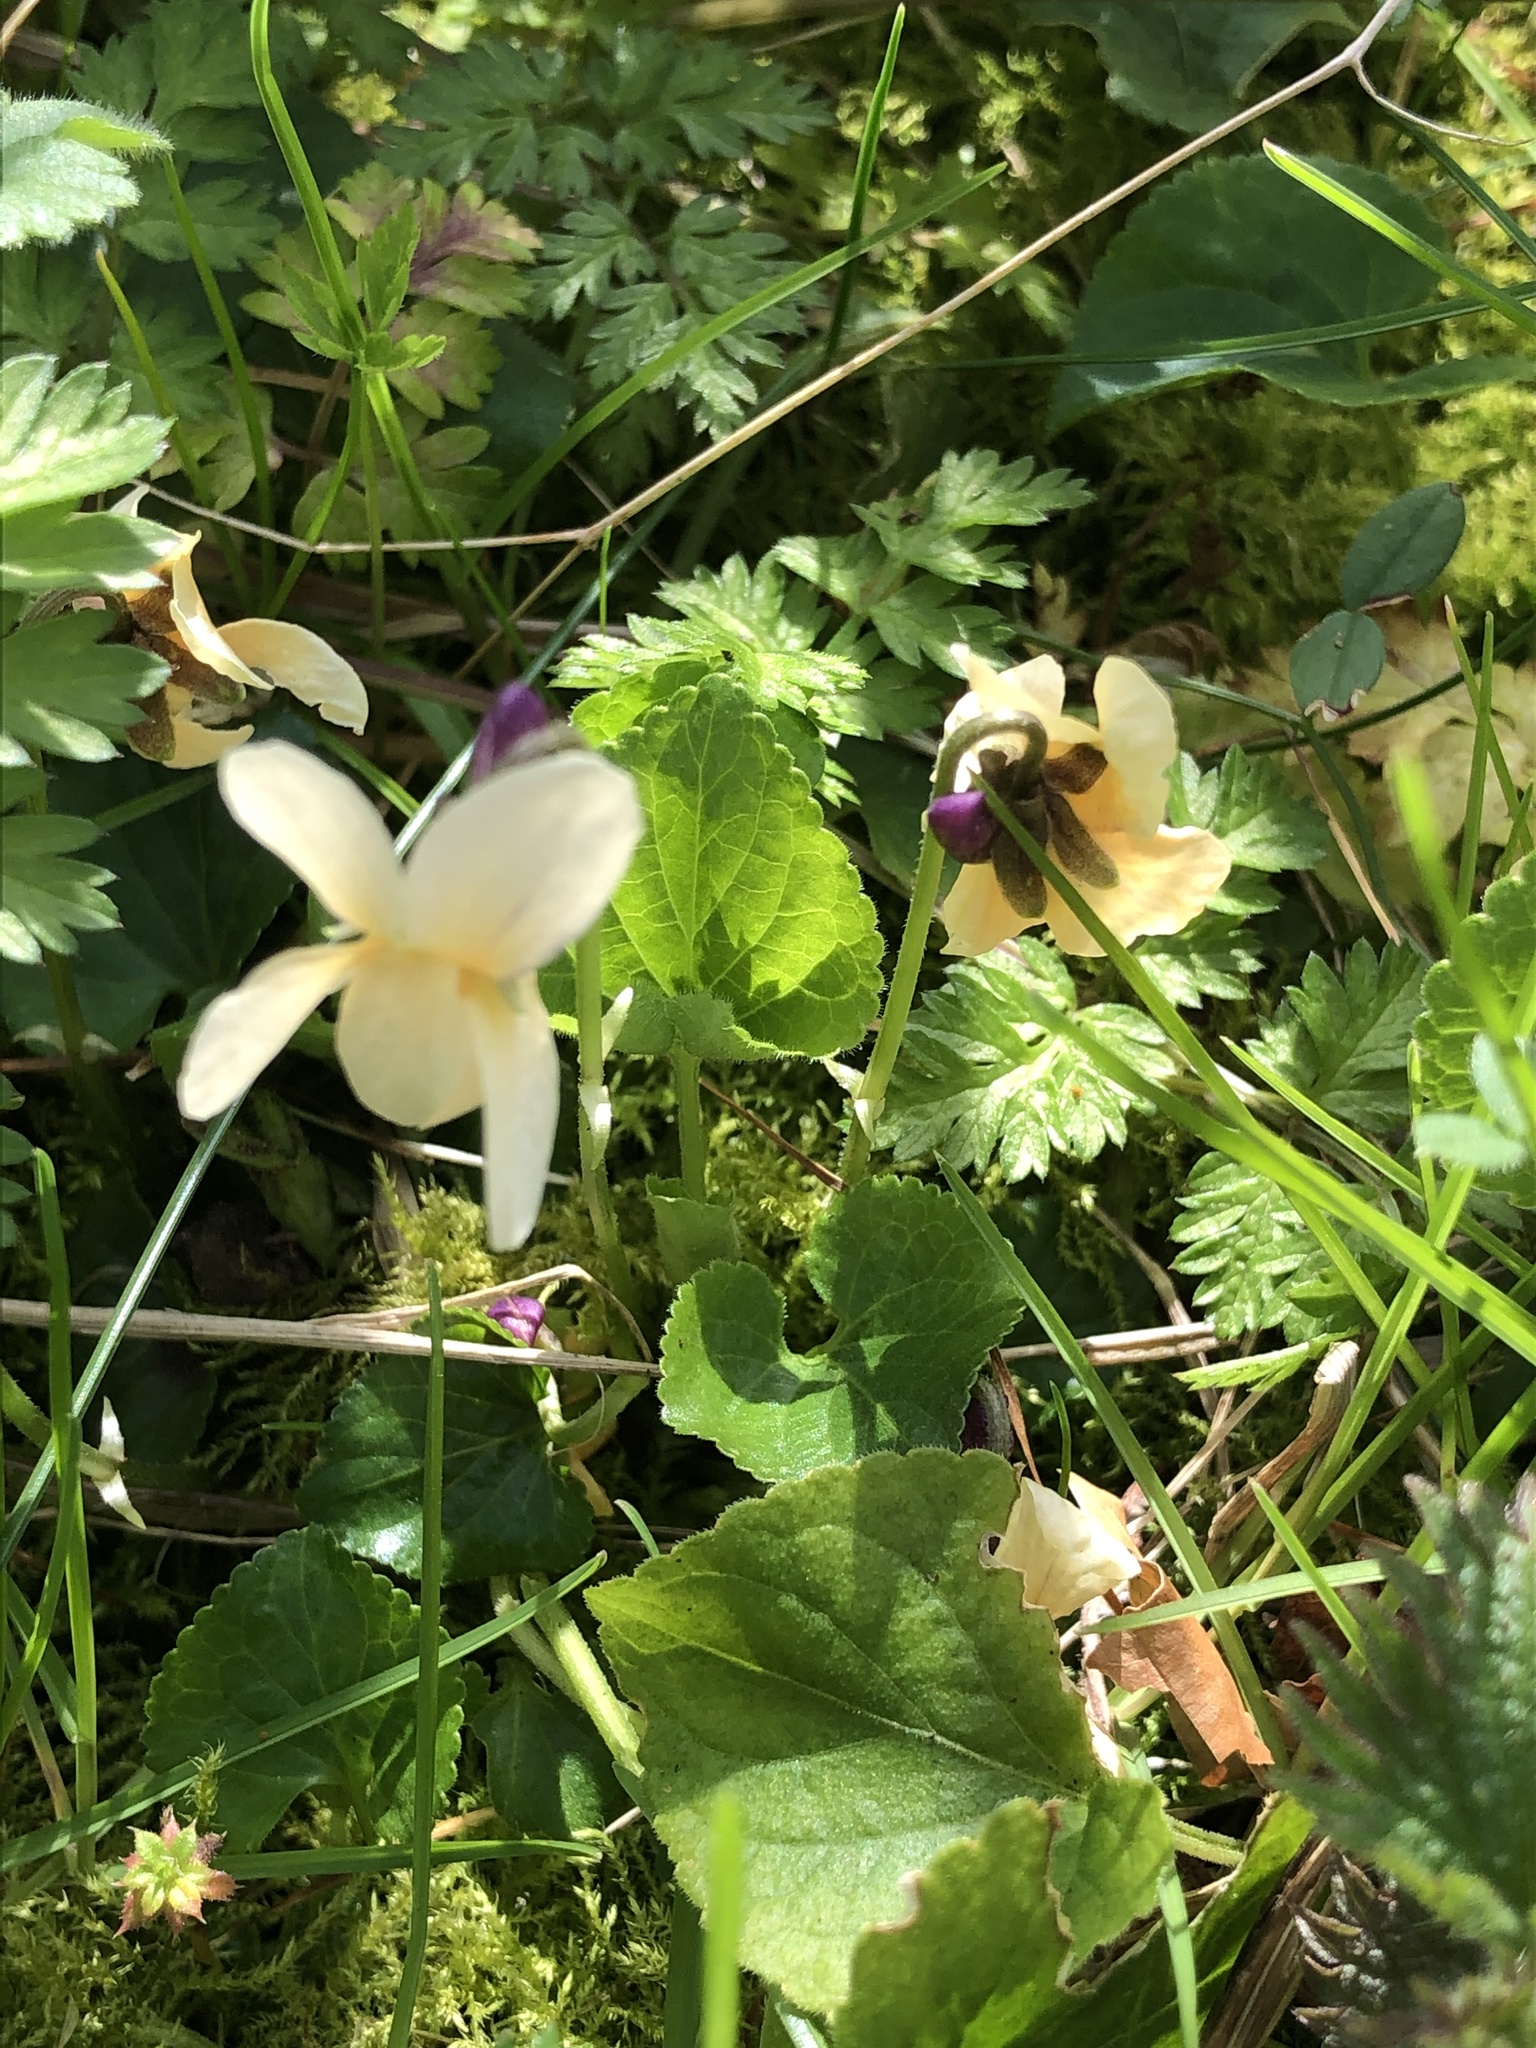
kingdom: Plantae
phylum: Tracheophyta
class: Magnoliopsida
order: Malpighiales
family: Violaceae
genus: Viola
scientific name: Viola odorata
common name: Sweet violet
